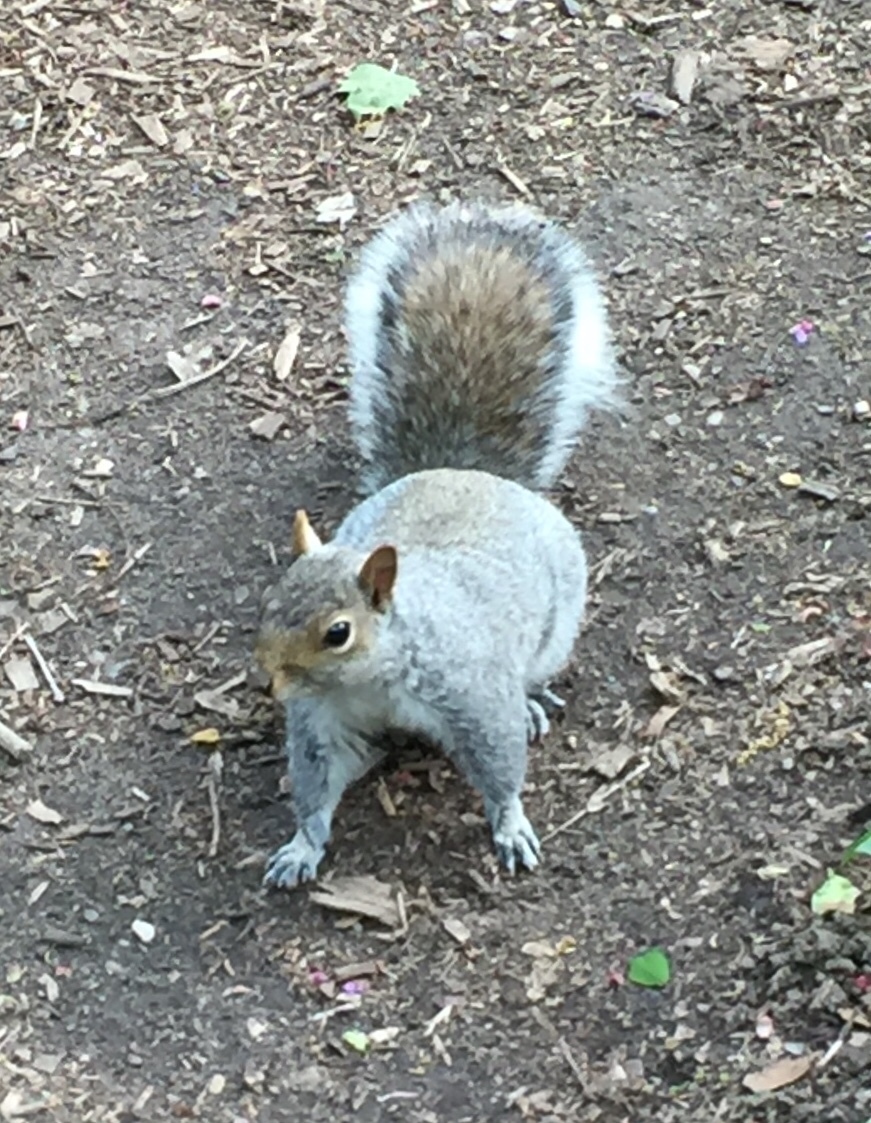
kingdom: Animalia
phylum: Chordata
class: Mammalia
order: Rodentia
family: Sciuridae
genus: Sciurus
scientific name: Sciurus carolinensis
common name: Eastern gray squirrel
